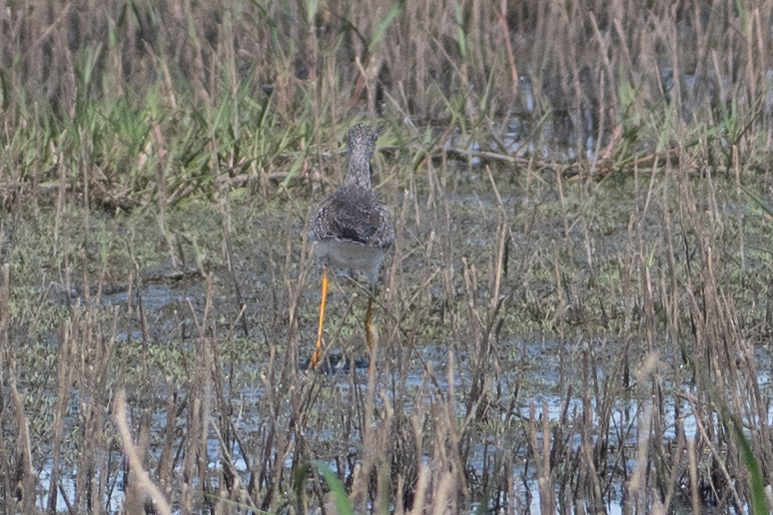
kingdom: Animalia
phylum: Chordata
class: Aves
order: Charadriiformes
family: Scolopacidae
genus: Tringa
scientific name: Tringa melanoleuca
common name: Greater yellowlegs
